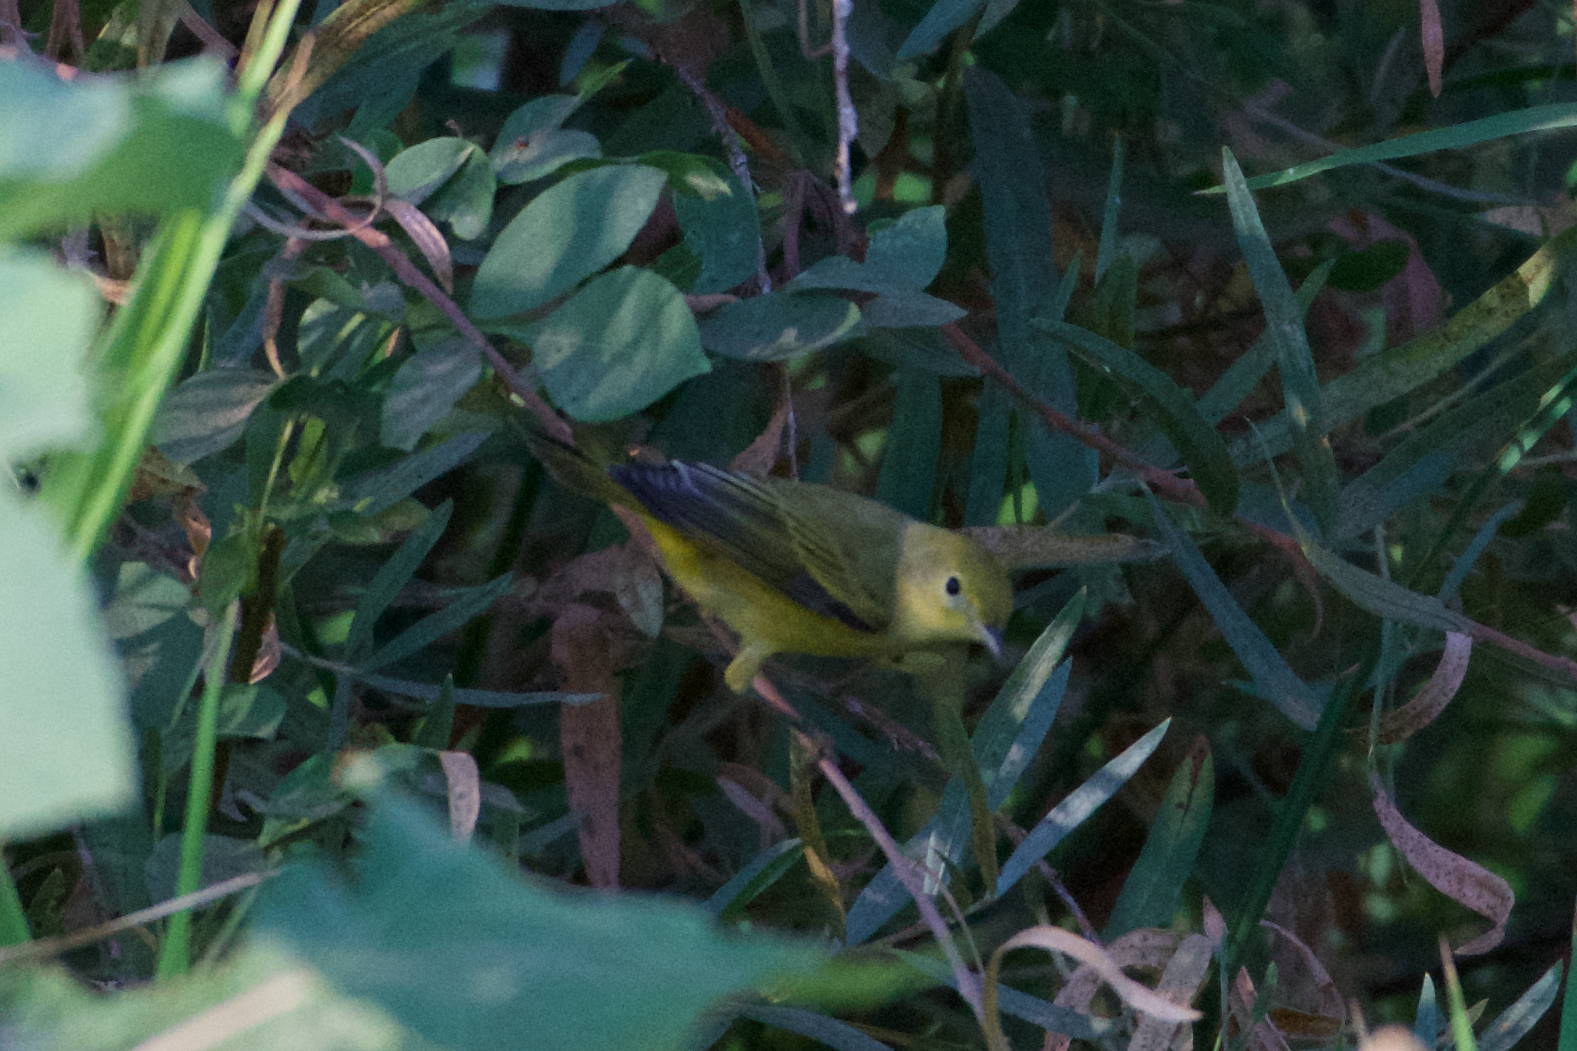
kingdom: Animalia
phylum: Chordata
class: Aves
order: Passeriformes
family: Parulidae
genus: Setophaga
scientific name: Setophaga petechia
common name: Yellow warbler
